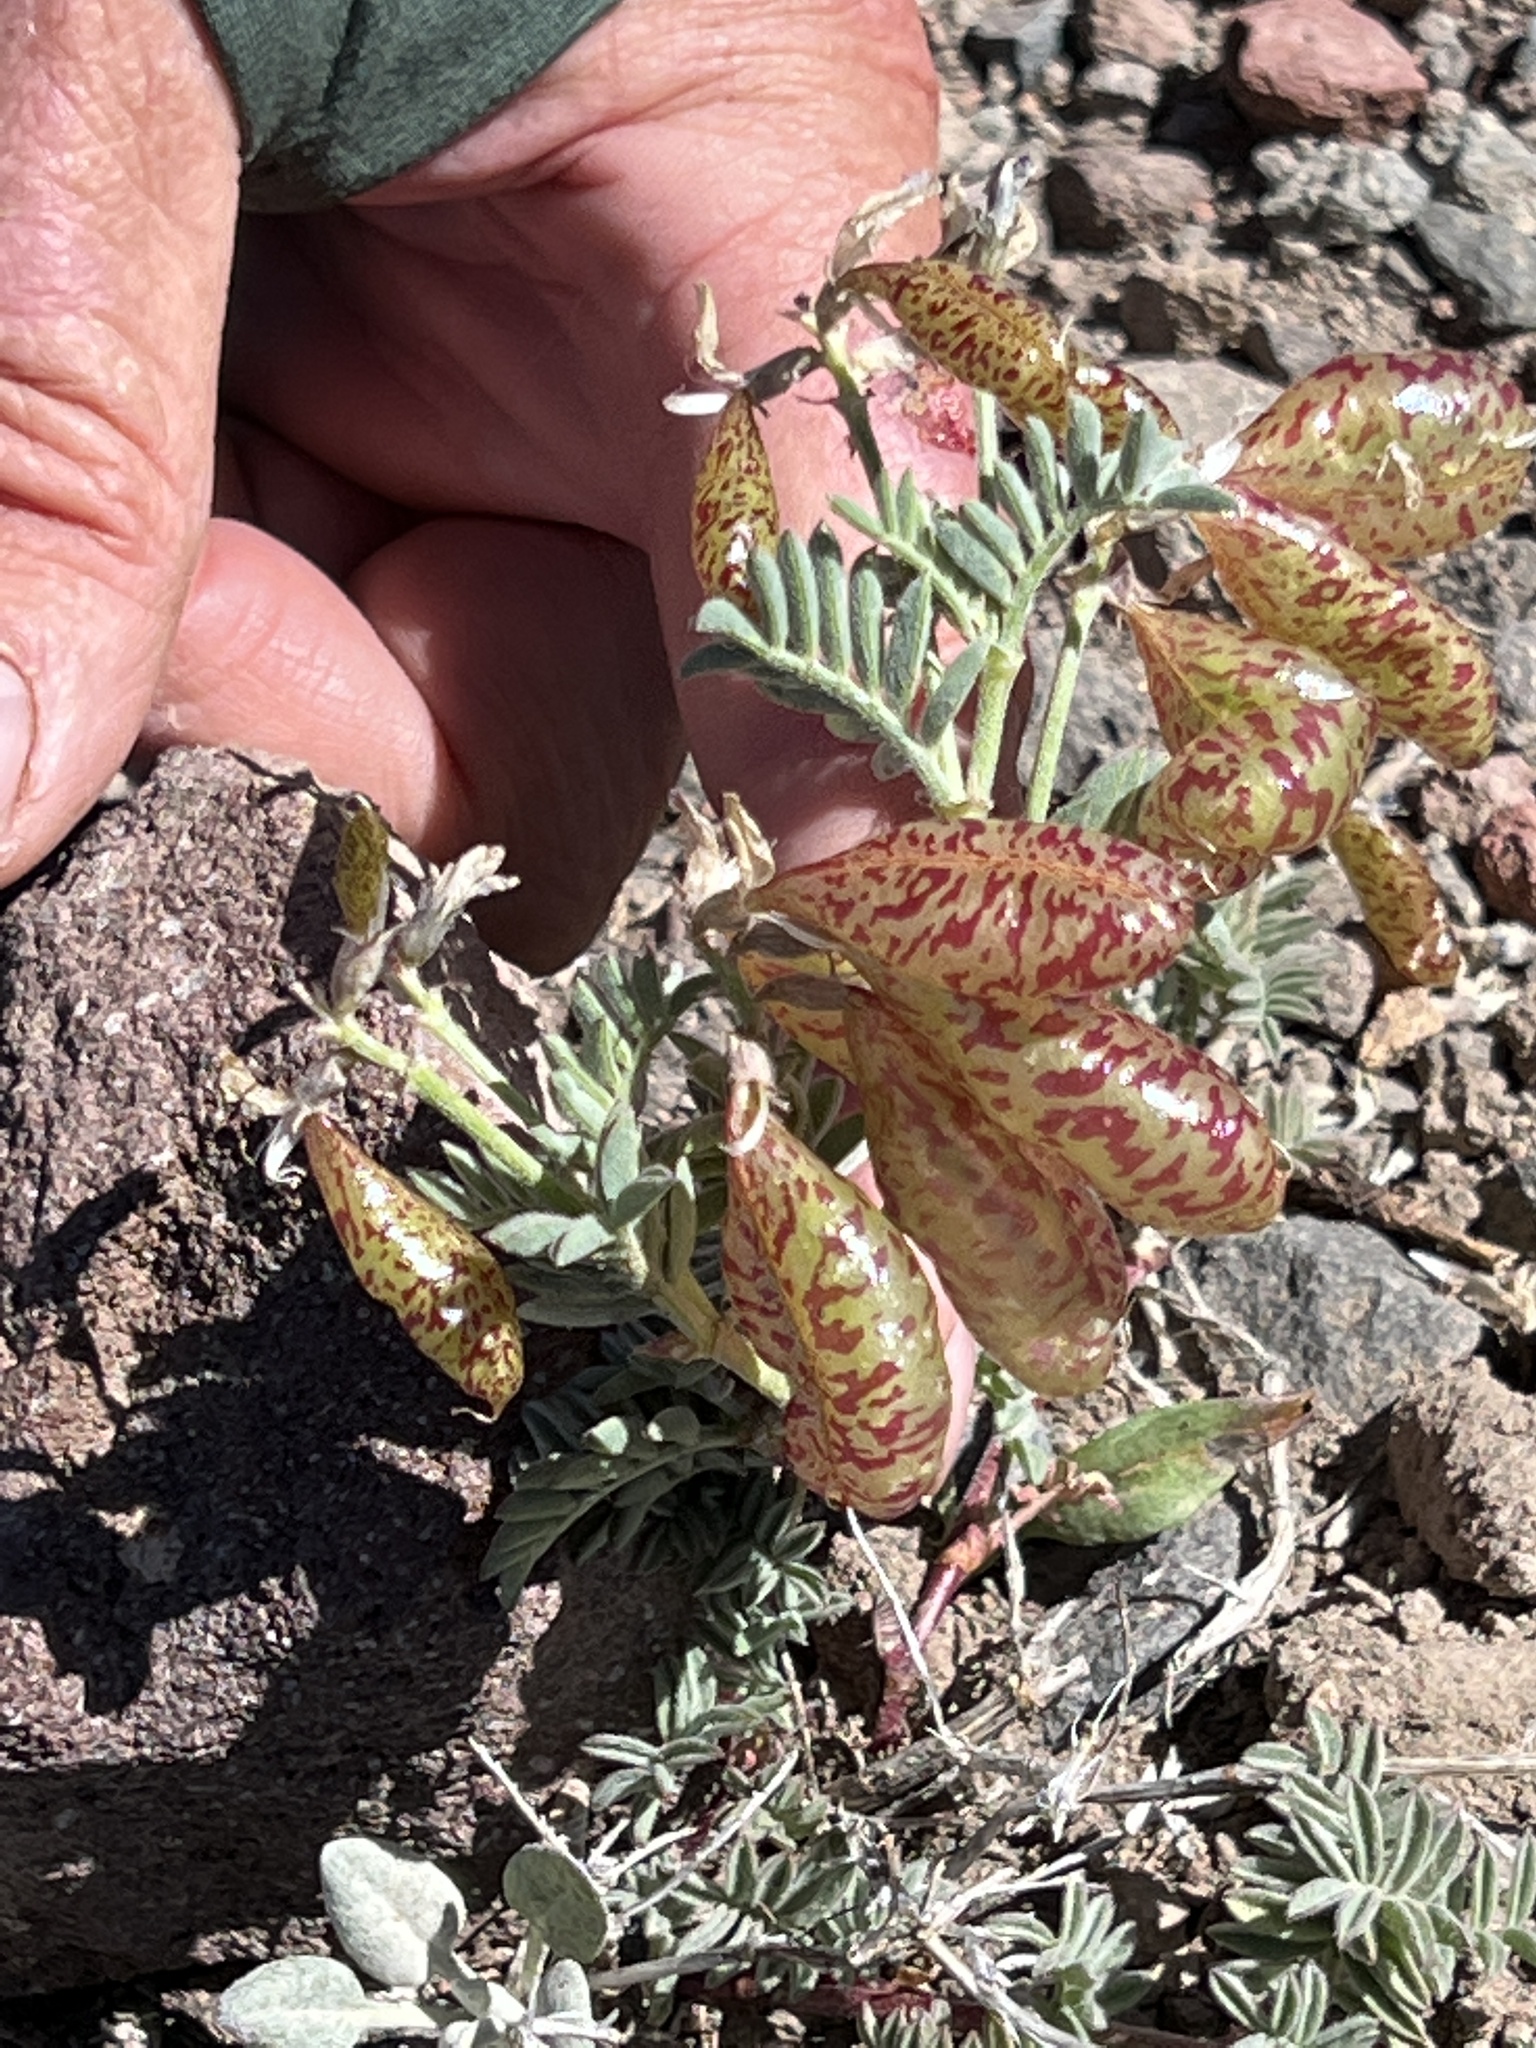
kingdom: Plantae
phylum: Tracheophyta
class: Magnoliopsida
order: Fabales
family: Fabaceae
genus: Astragalus
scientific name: Astragalus whitneyi
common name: Balloonpod milkvetch
